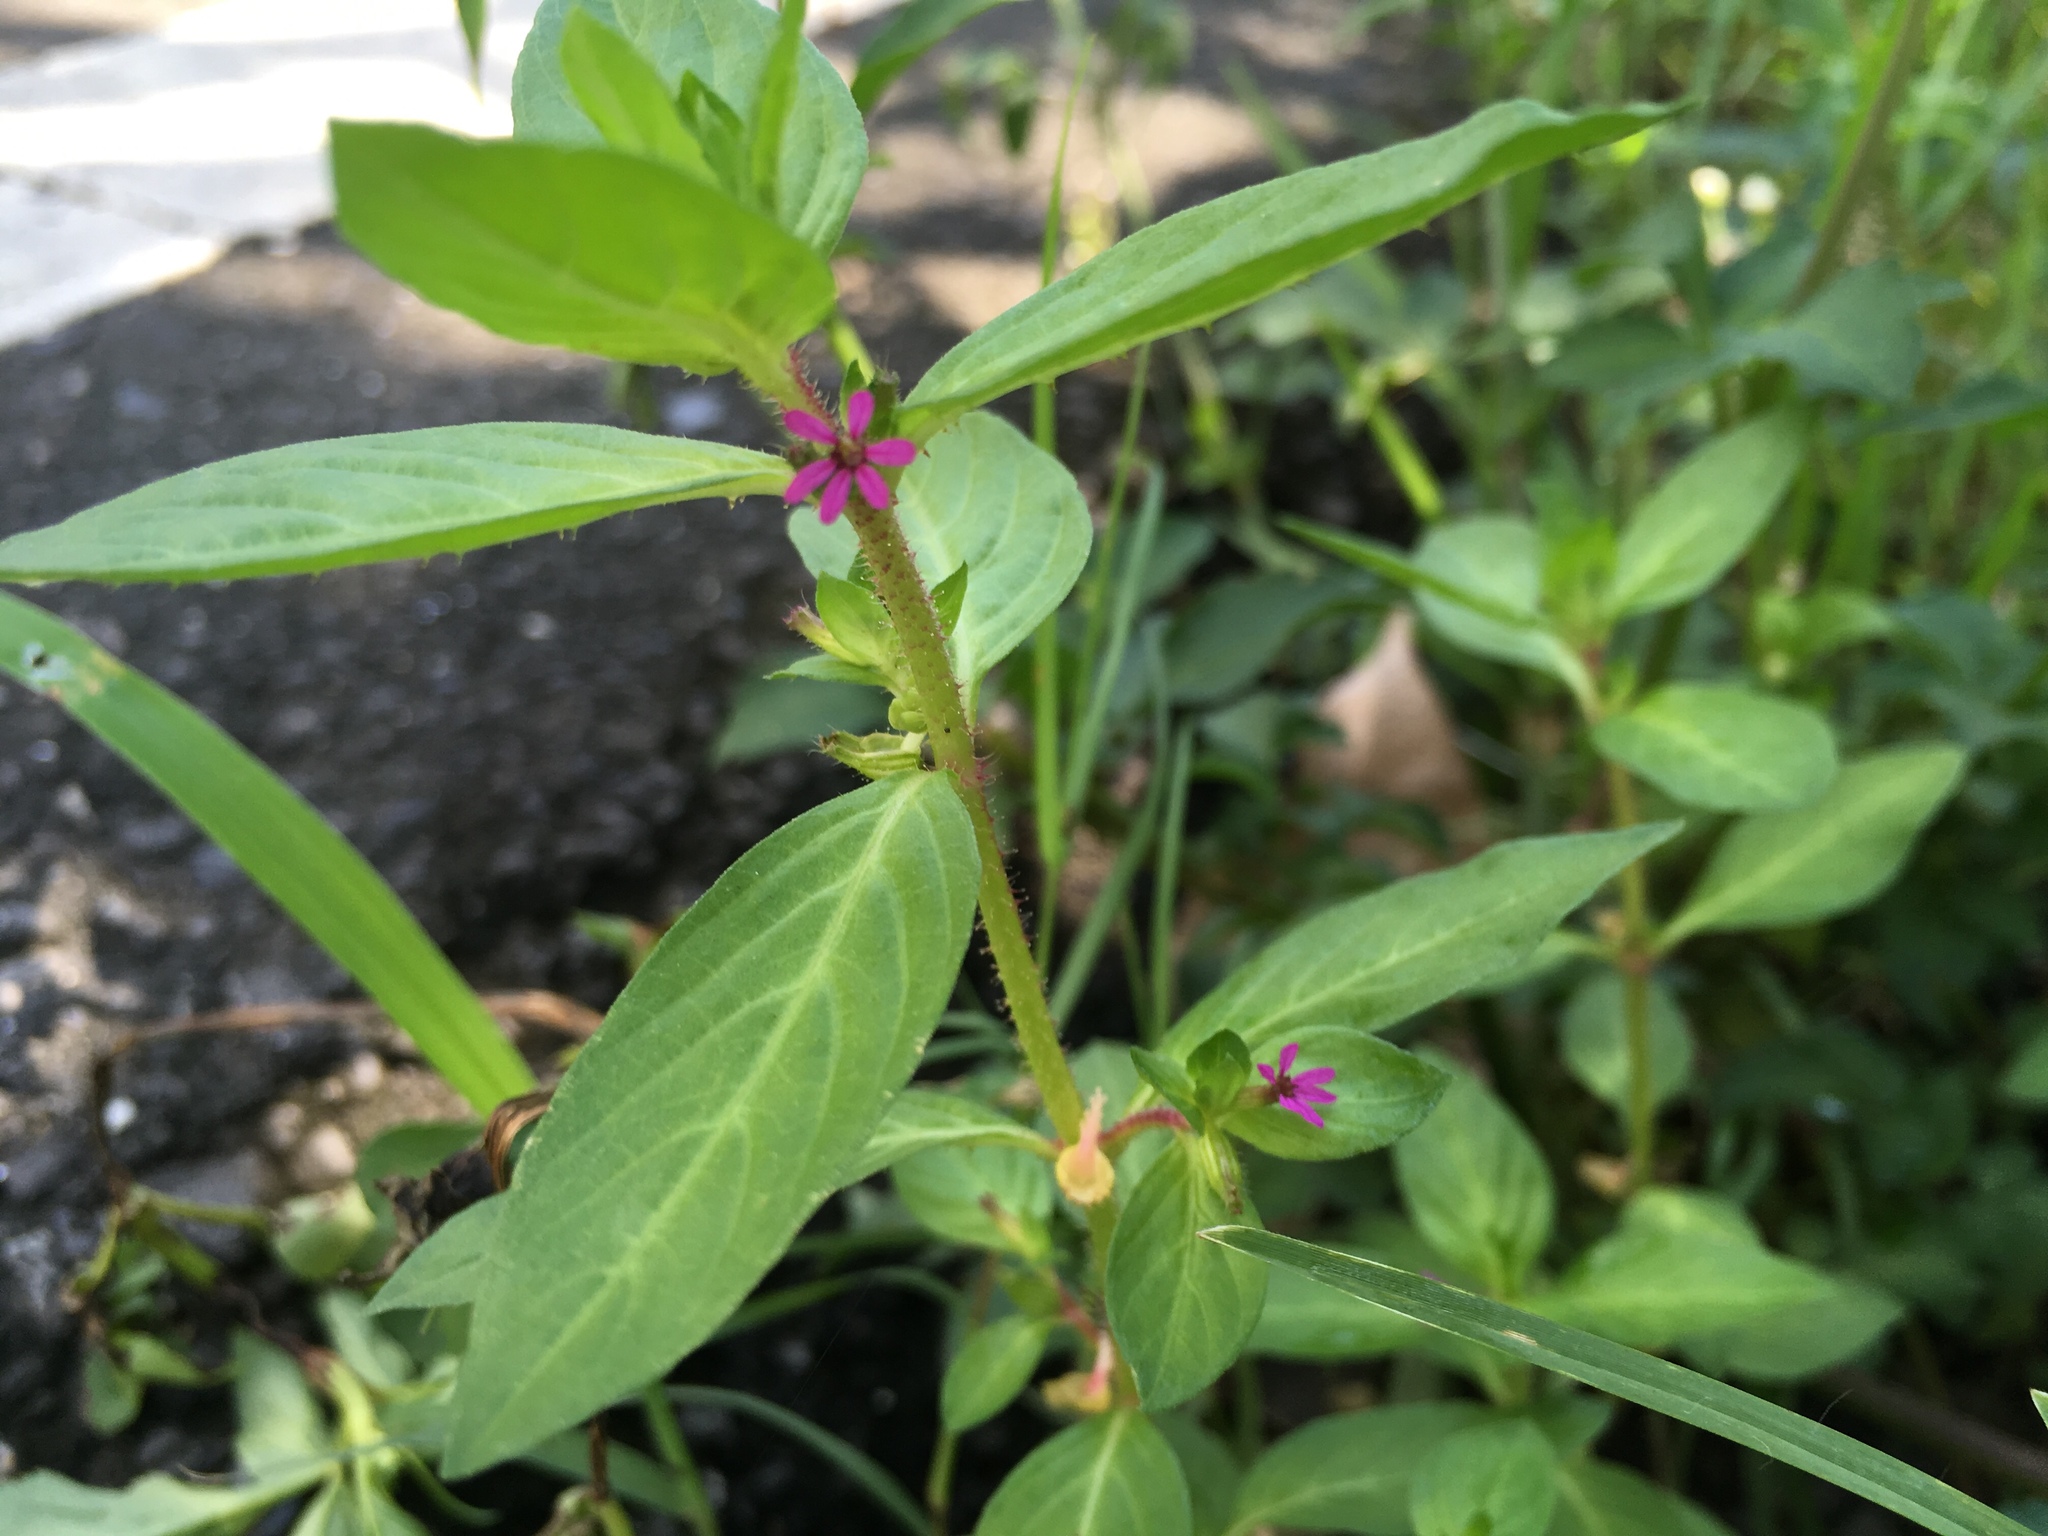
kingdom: Plantae
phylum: Tracheophyta
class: Magnoliopsida
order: Myrtales
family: Lythraceae
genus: Cuphea
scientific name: Cuphea carthagenensis
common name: Colombian waxweed
